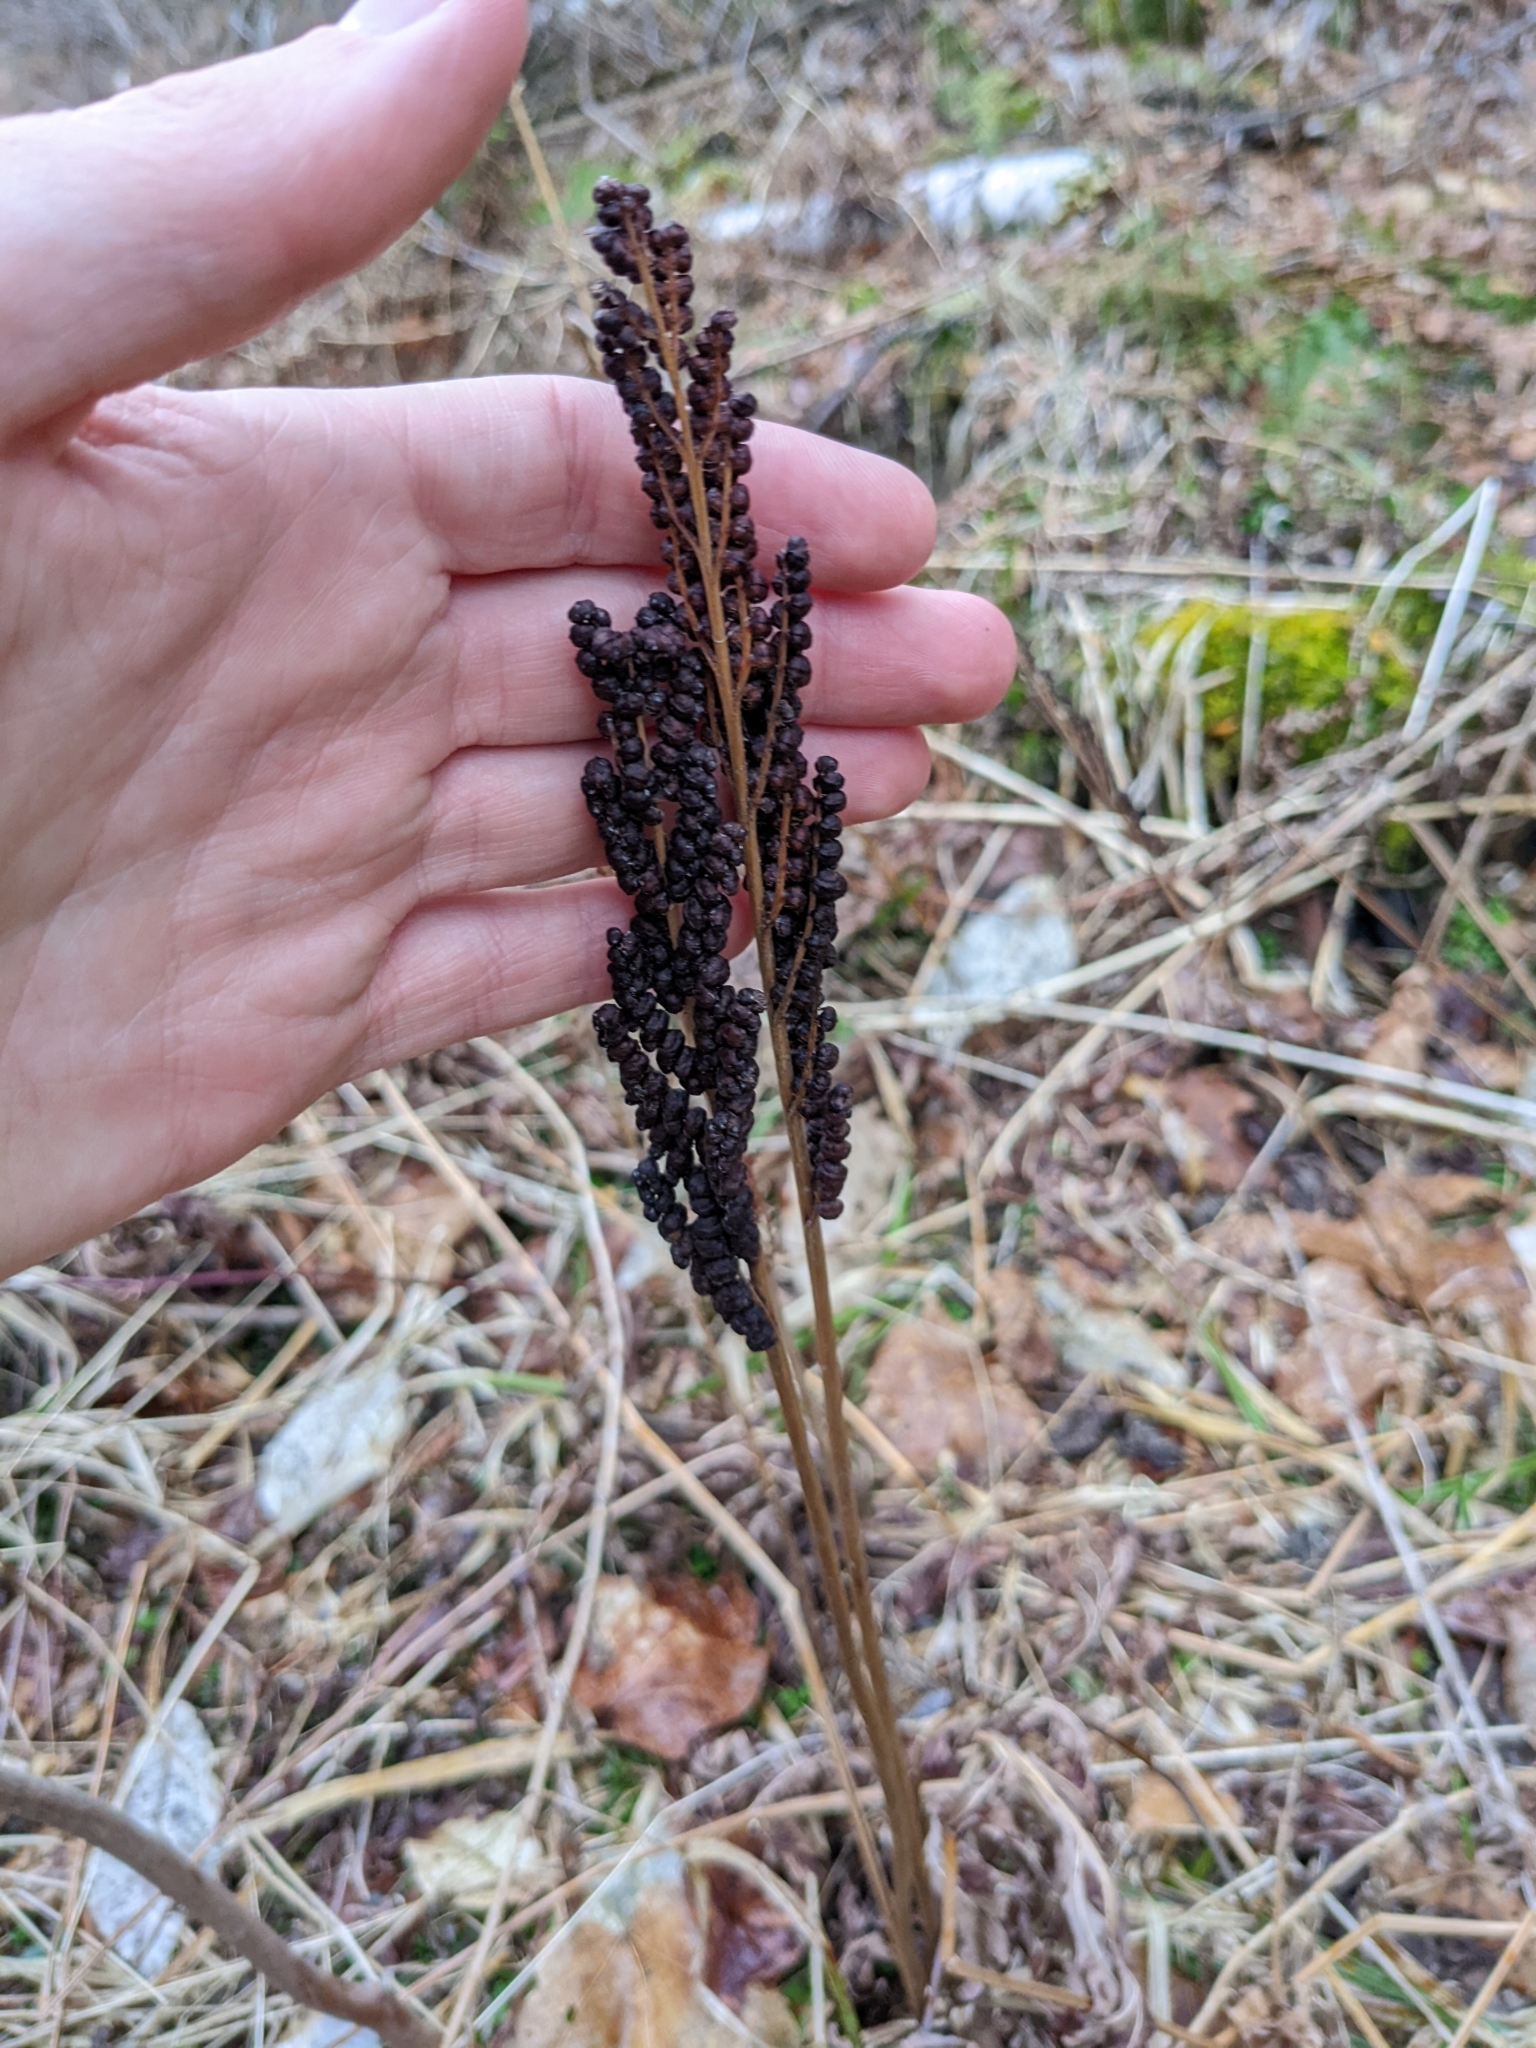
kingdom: Plantae
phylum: Tracheophyta
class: Polypodiopsida
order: Polypodiales
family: Onocleaceae
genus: Onoclea
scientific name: Onoclea sensibilis
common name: Sensitive fern
